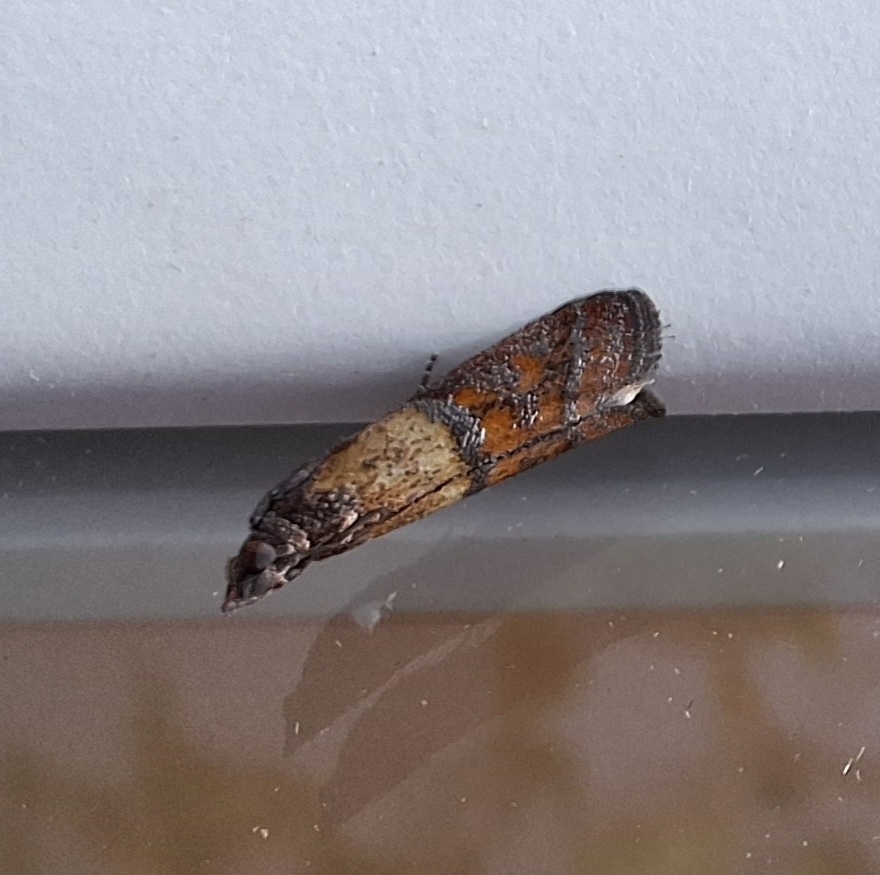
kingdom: Animalia
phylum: Arthropoda
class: Insecta
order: Lepidoptera
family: Pyralidae
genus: Plodia
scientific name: Plodia interpunctella
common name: Indian meal moth
